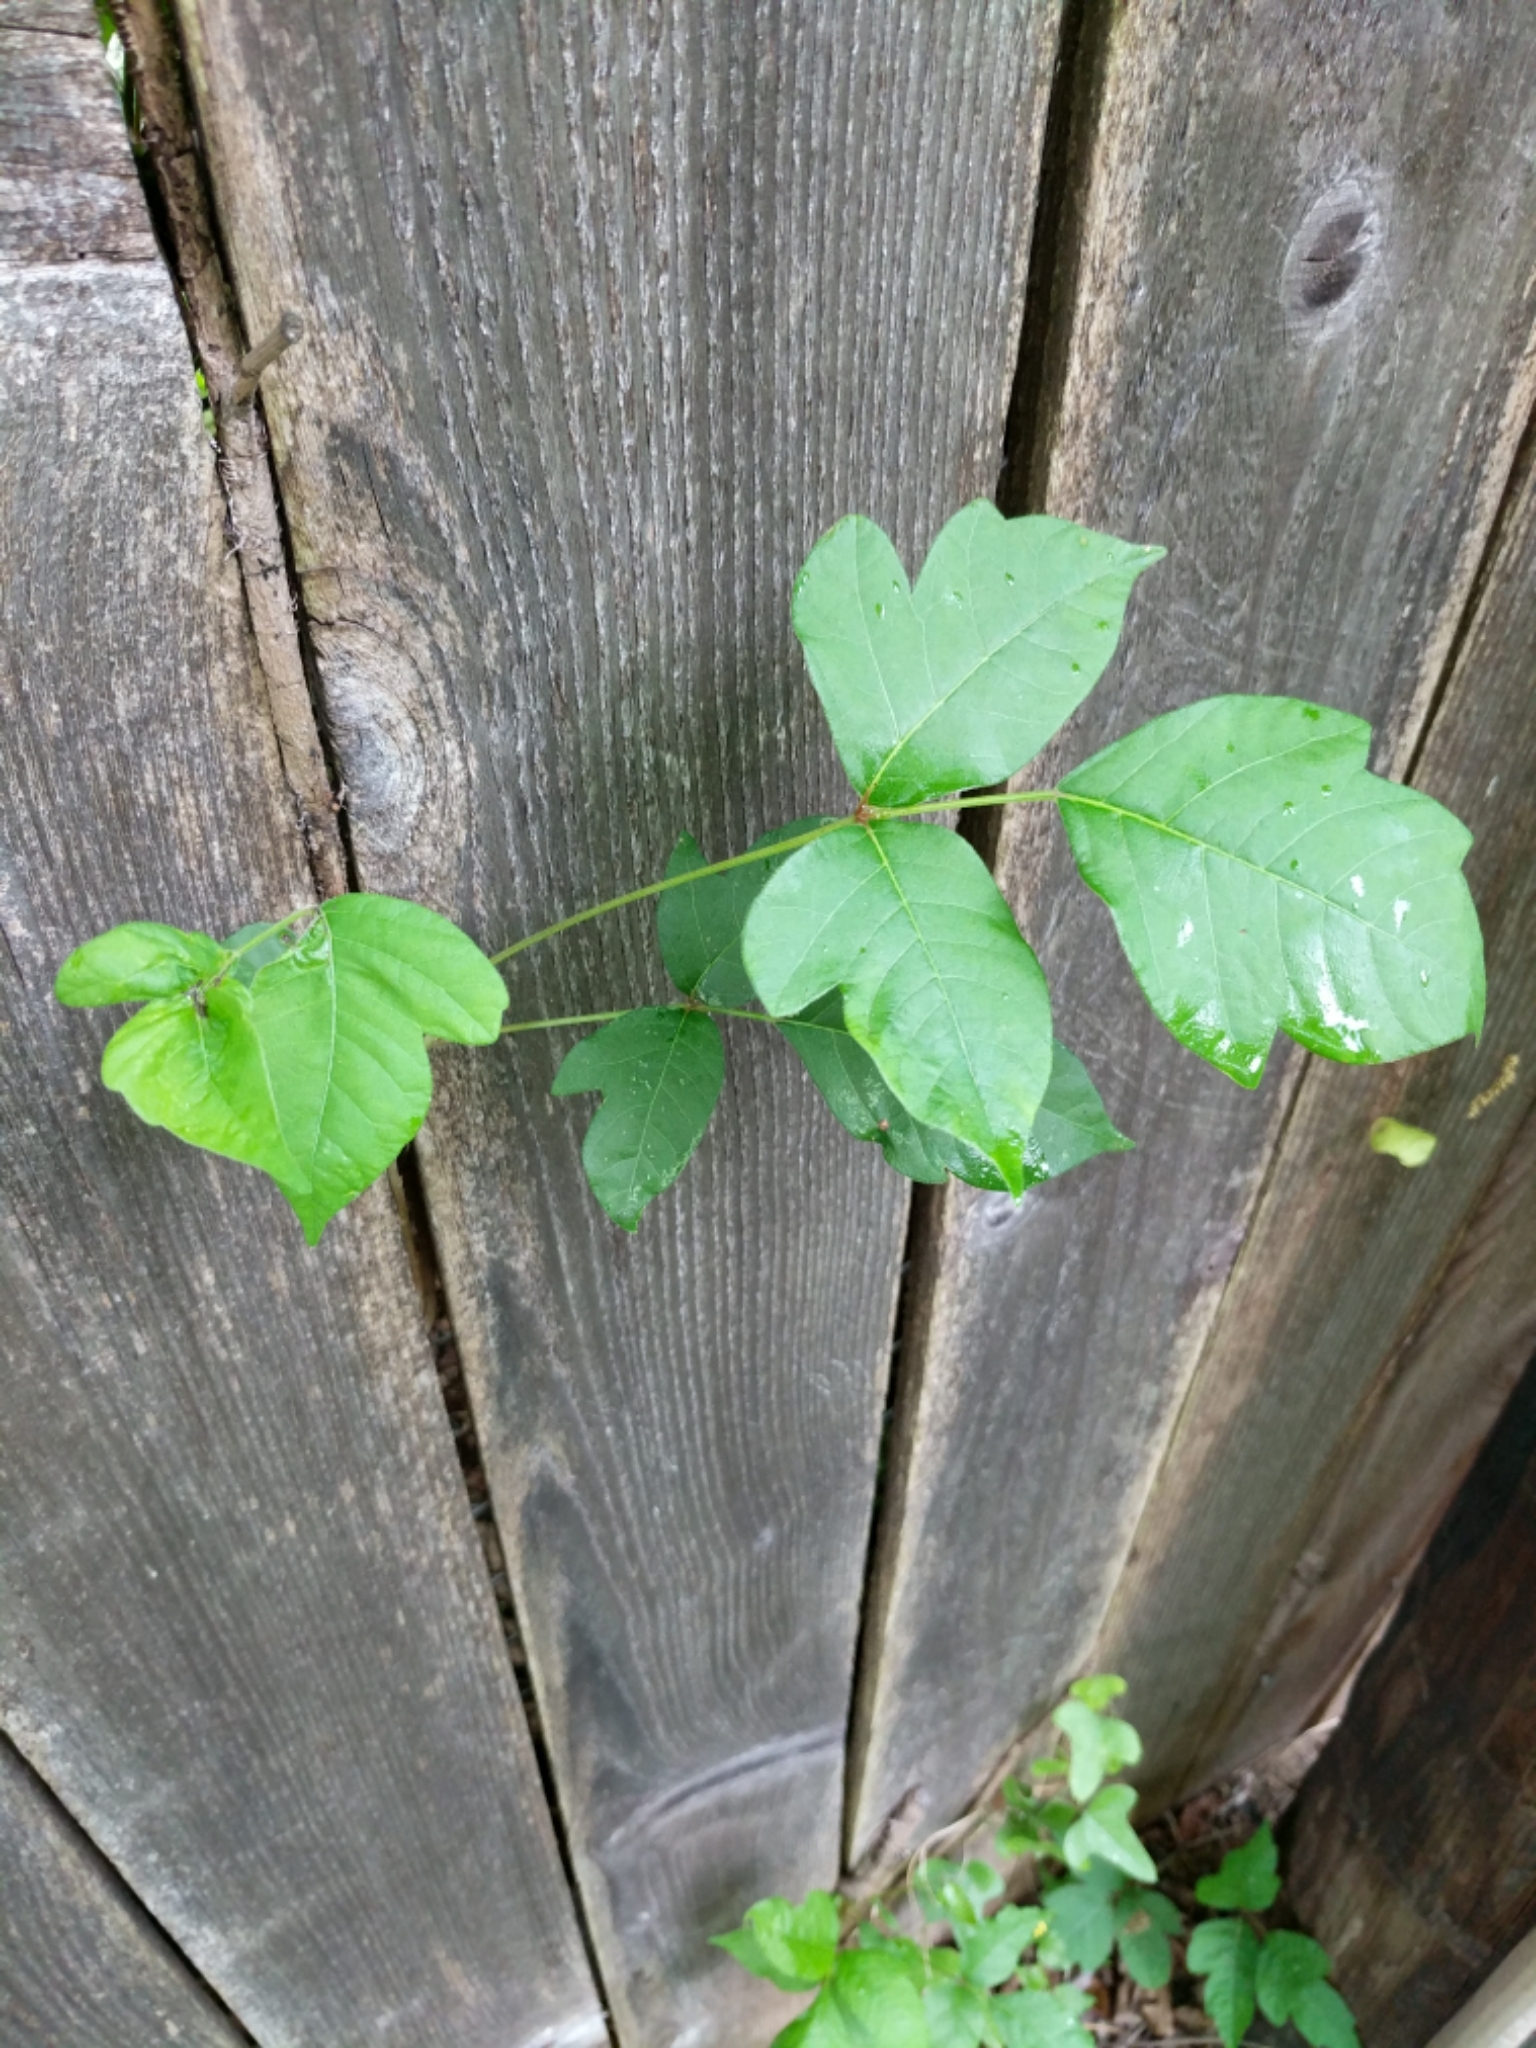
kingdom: Plantae
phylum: Tracheophyta
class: Magnoliopsida
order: Sapindales
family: Anacardiaceae
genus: Toxicodendron
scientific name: Toxicodendron radicans
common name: Poison ivy
